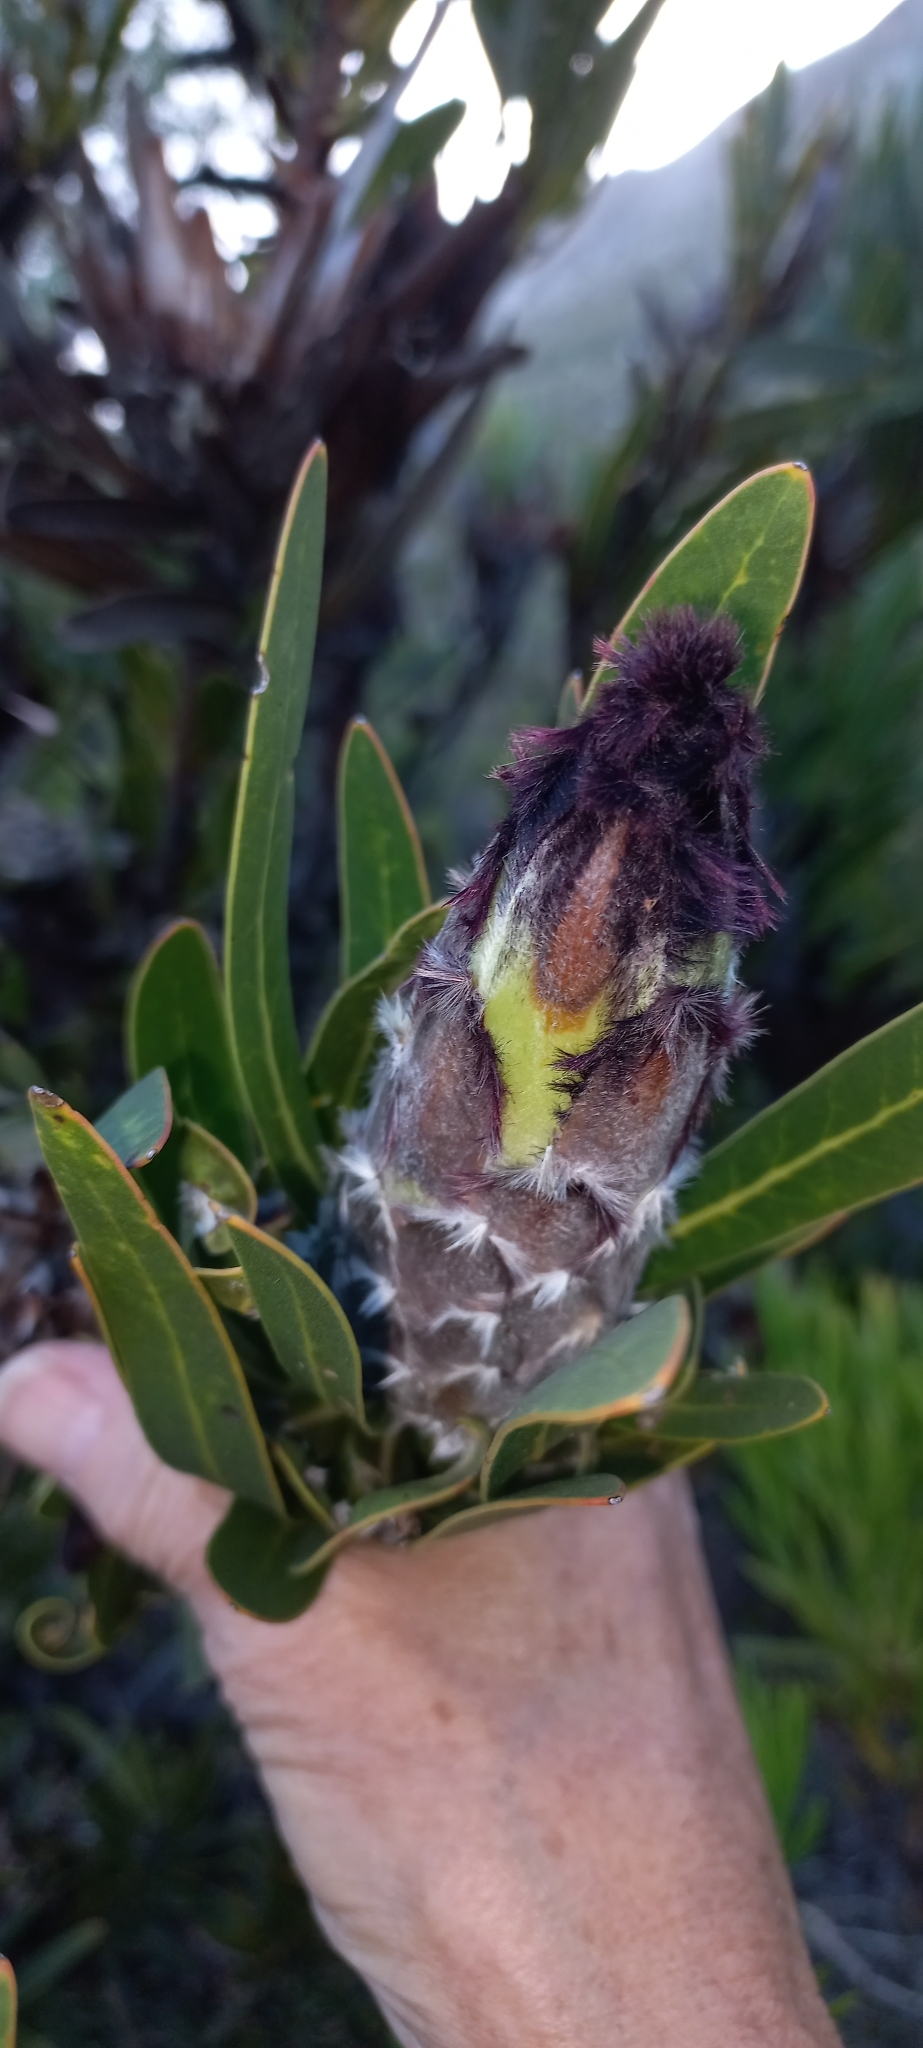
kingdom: Plantae
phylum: Tracheophyta
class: Magnoliopsida
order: Proteales
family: Proteaceae
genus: Protea
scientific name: Protea lepidocarpodendron
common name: Black-bearded protea
